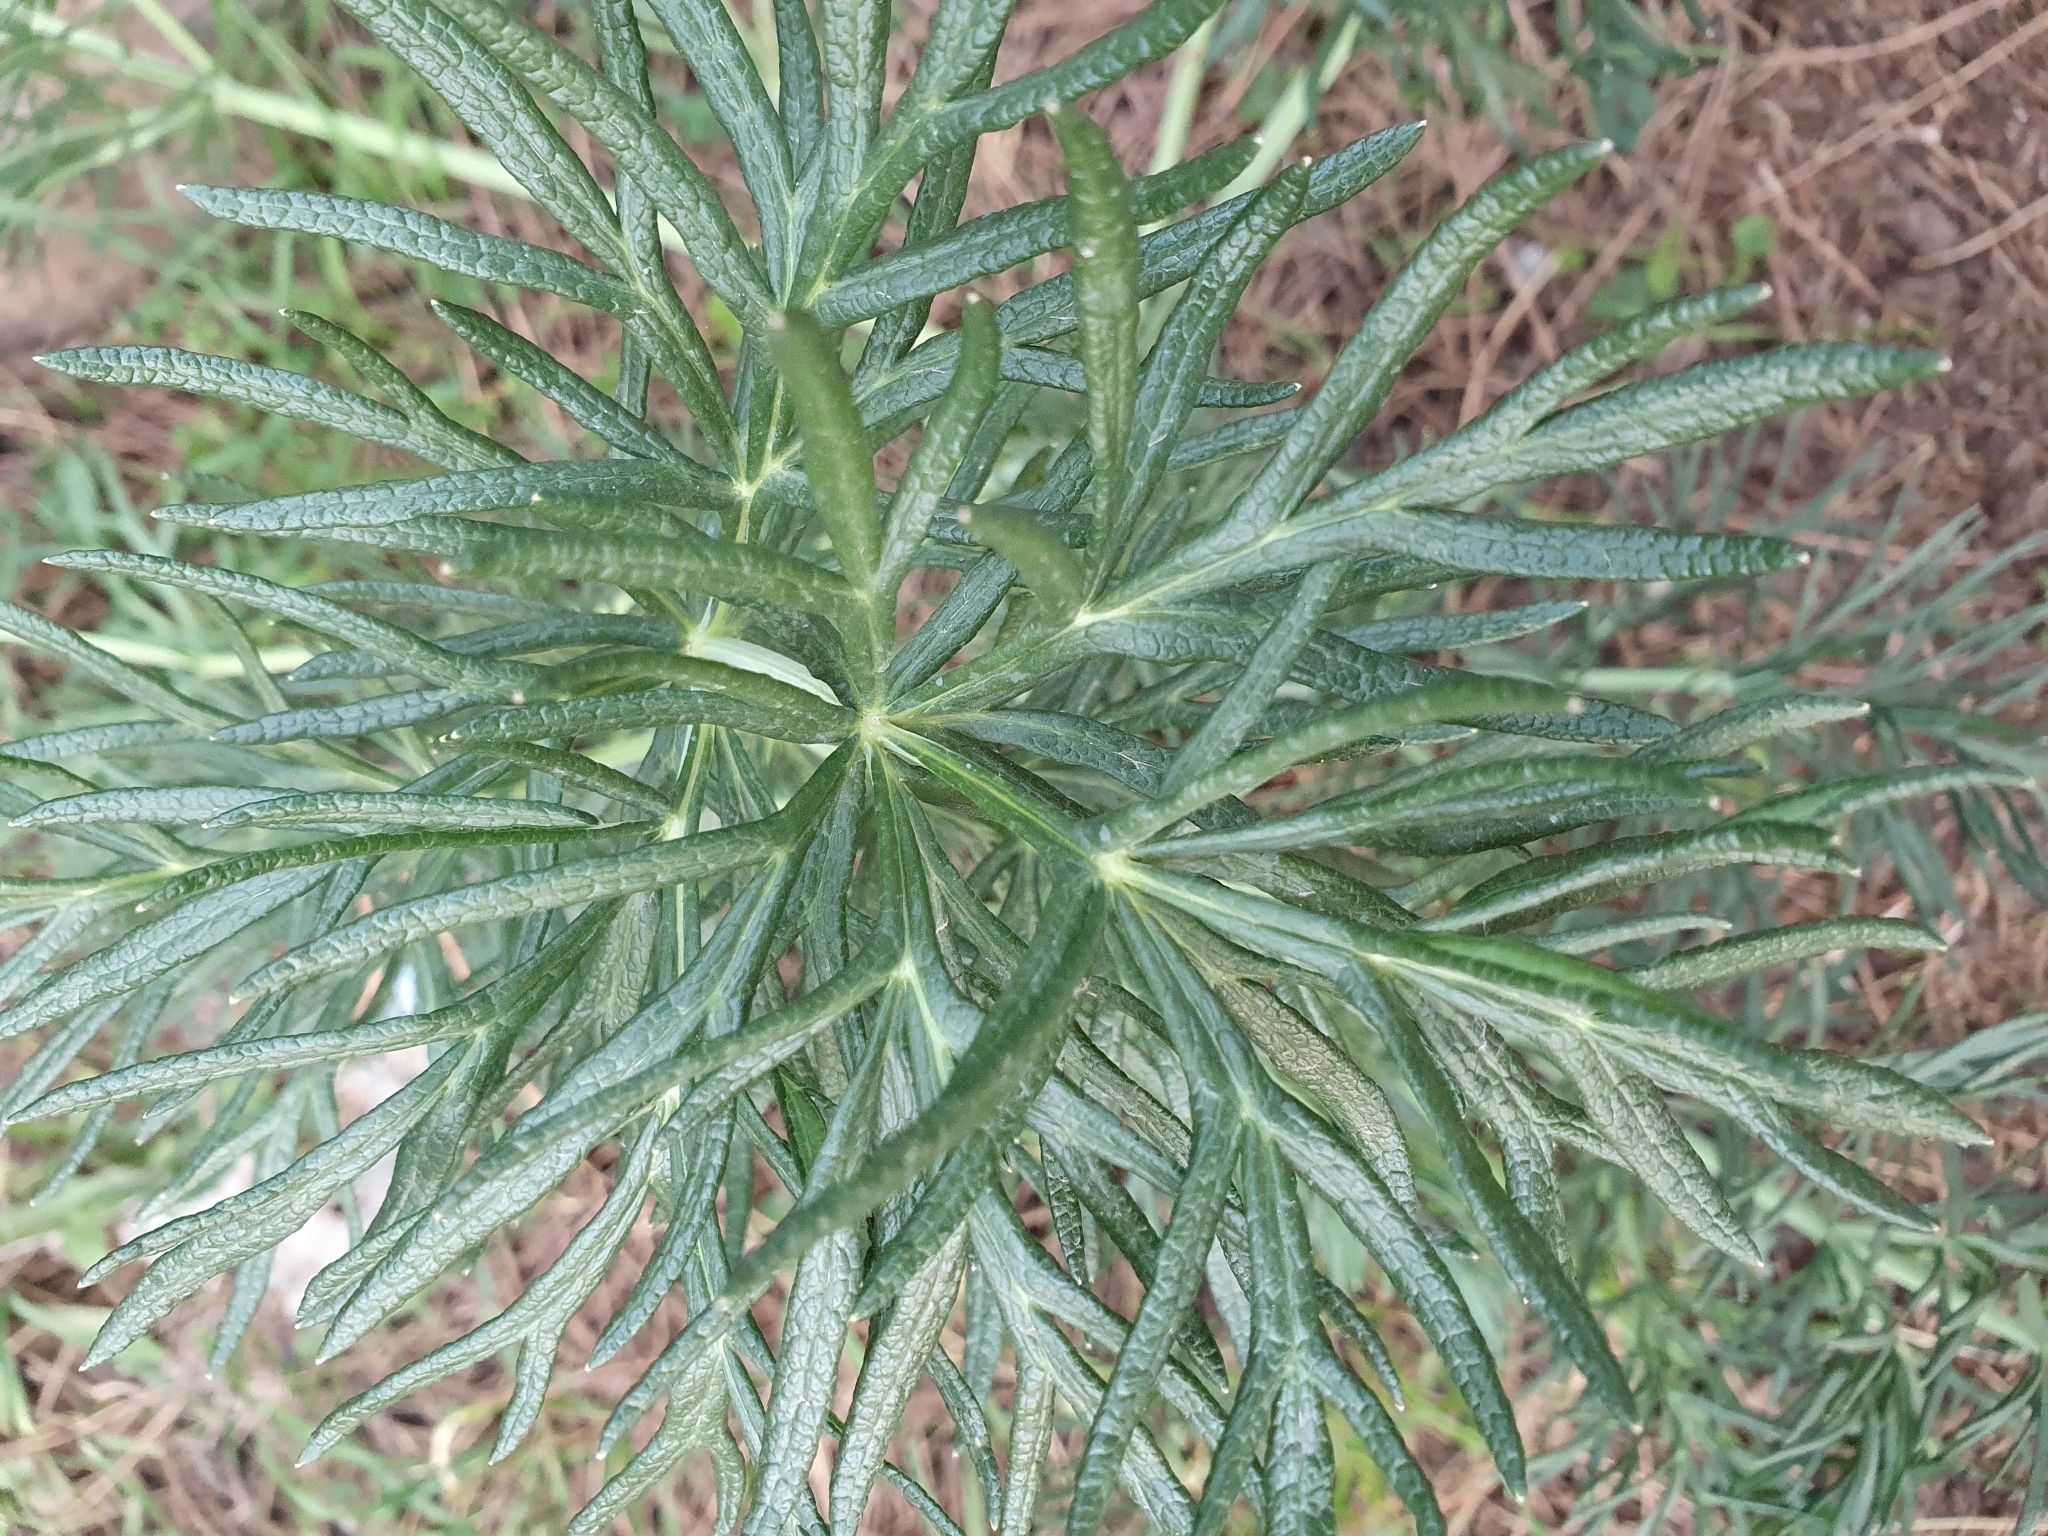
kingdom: Plantae
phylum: Tracheophyta
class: Magnoliopsida
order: Apiales
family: Apiaceae
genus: Thapsia
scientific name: Thapsia garganica
